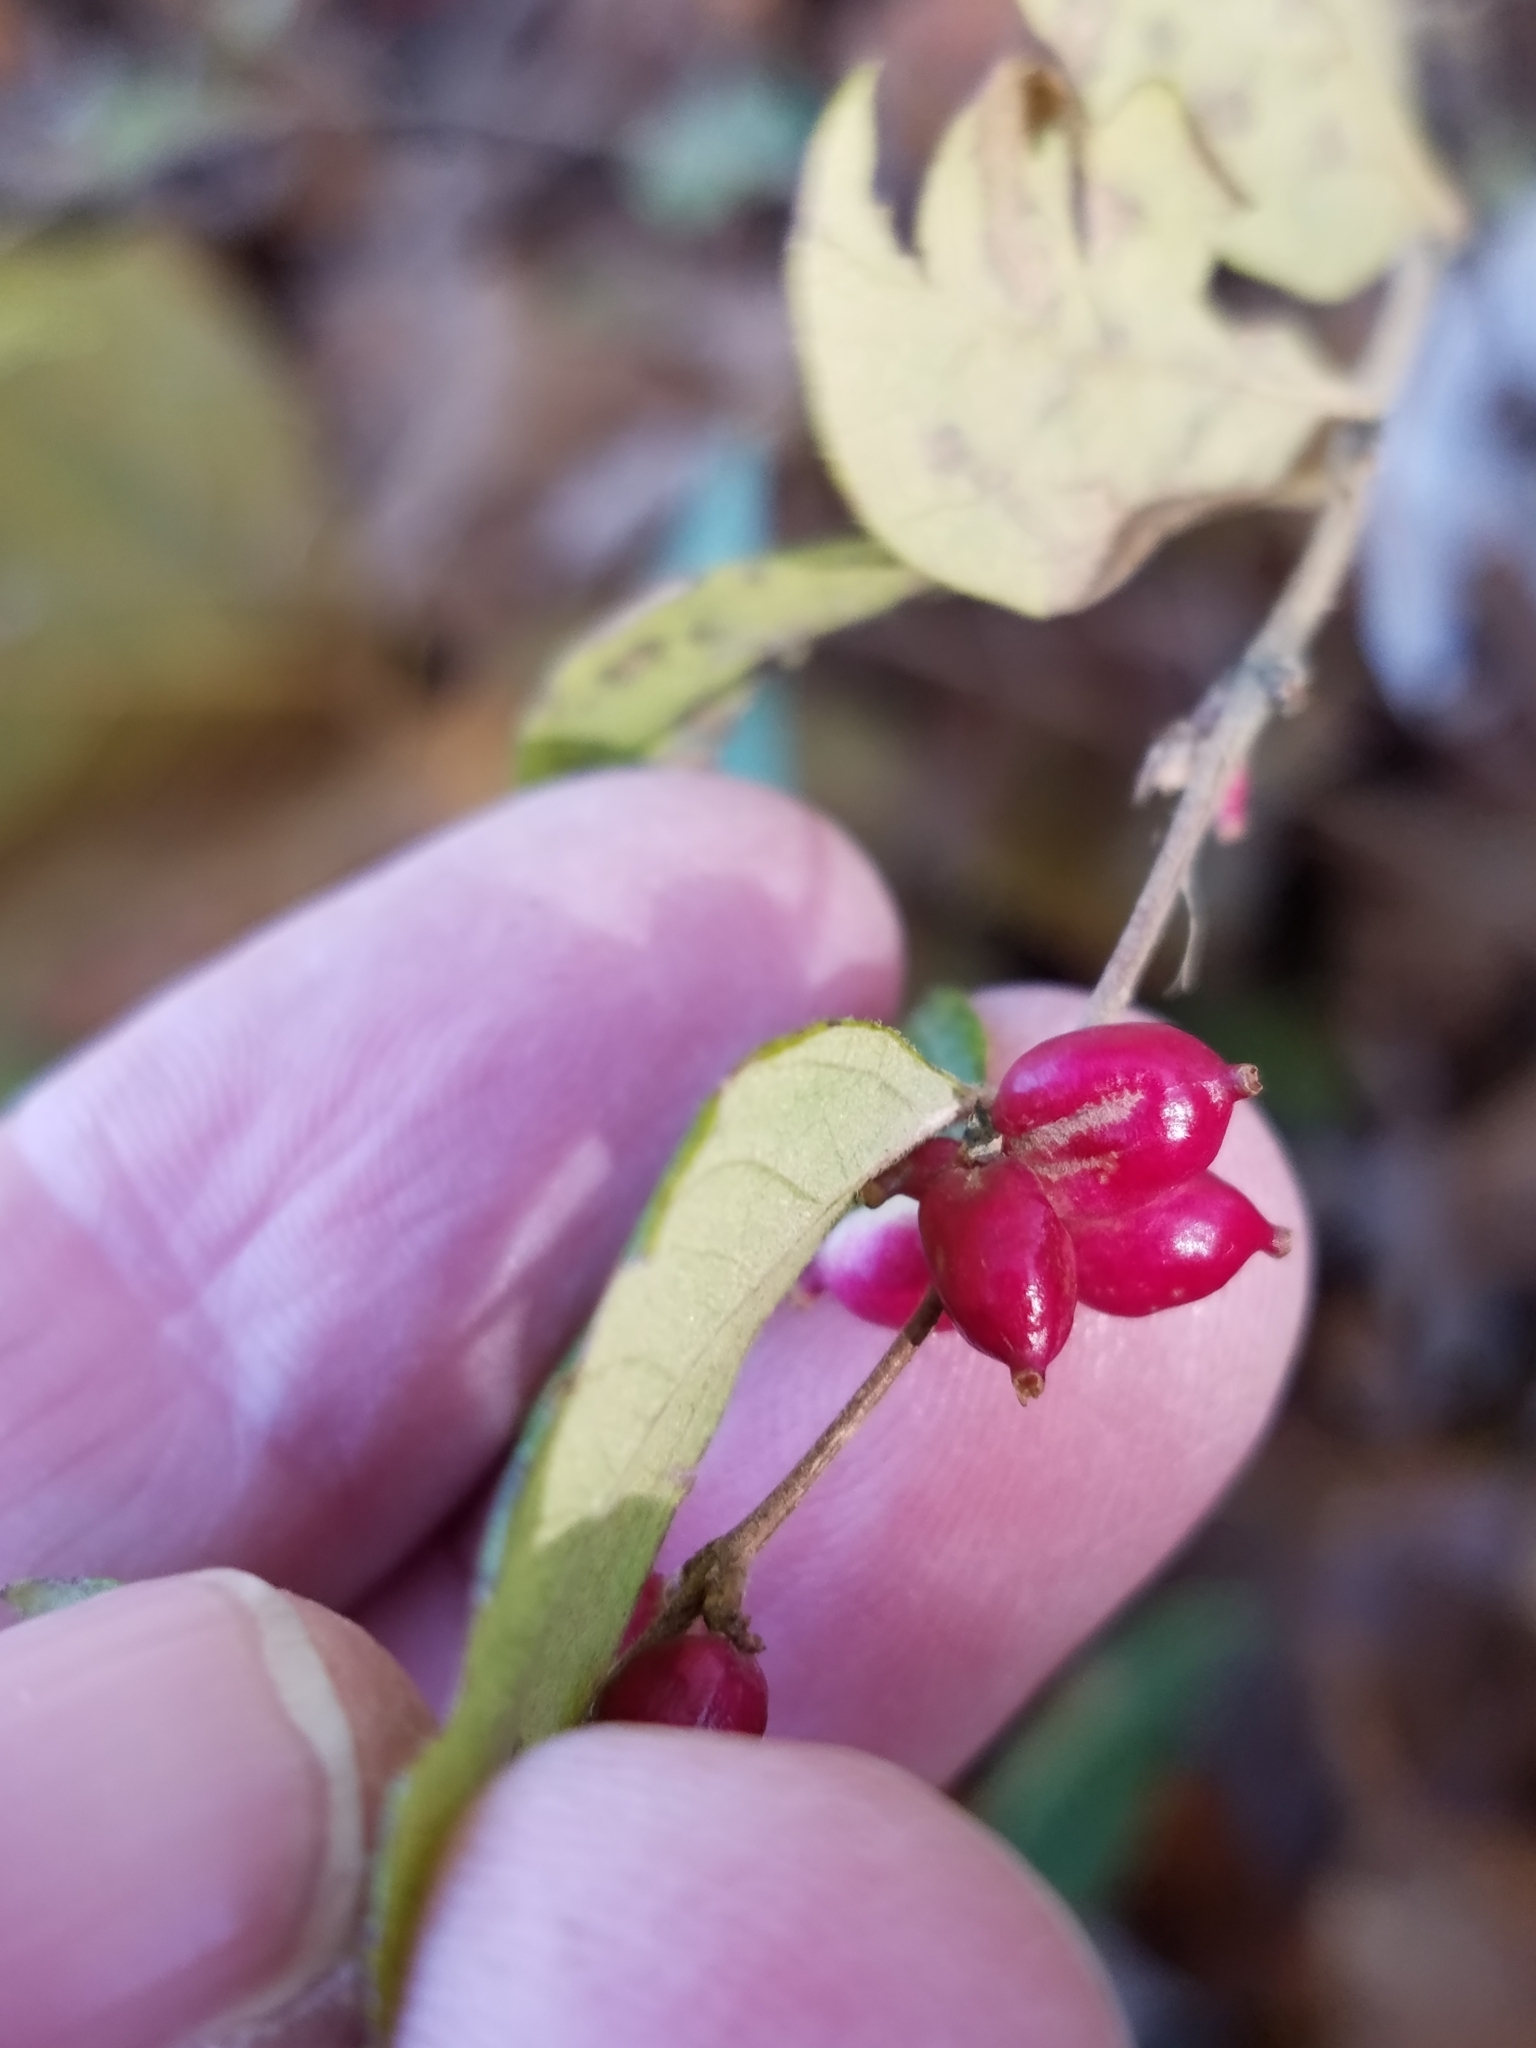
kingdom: Plantae
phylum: Tracheophyta
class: Magnoliopsida
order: Dipsacales
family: Caprifoliaceae
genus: Symphoricarpos
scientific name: Symphoricarpos orbiculatus
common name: Coralberry
